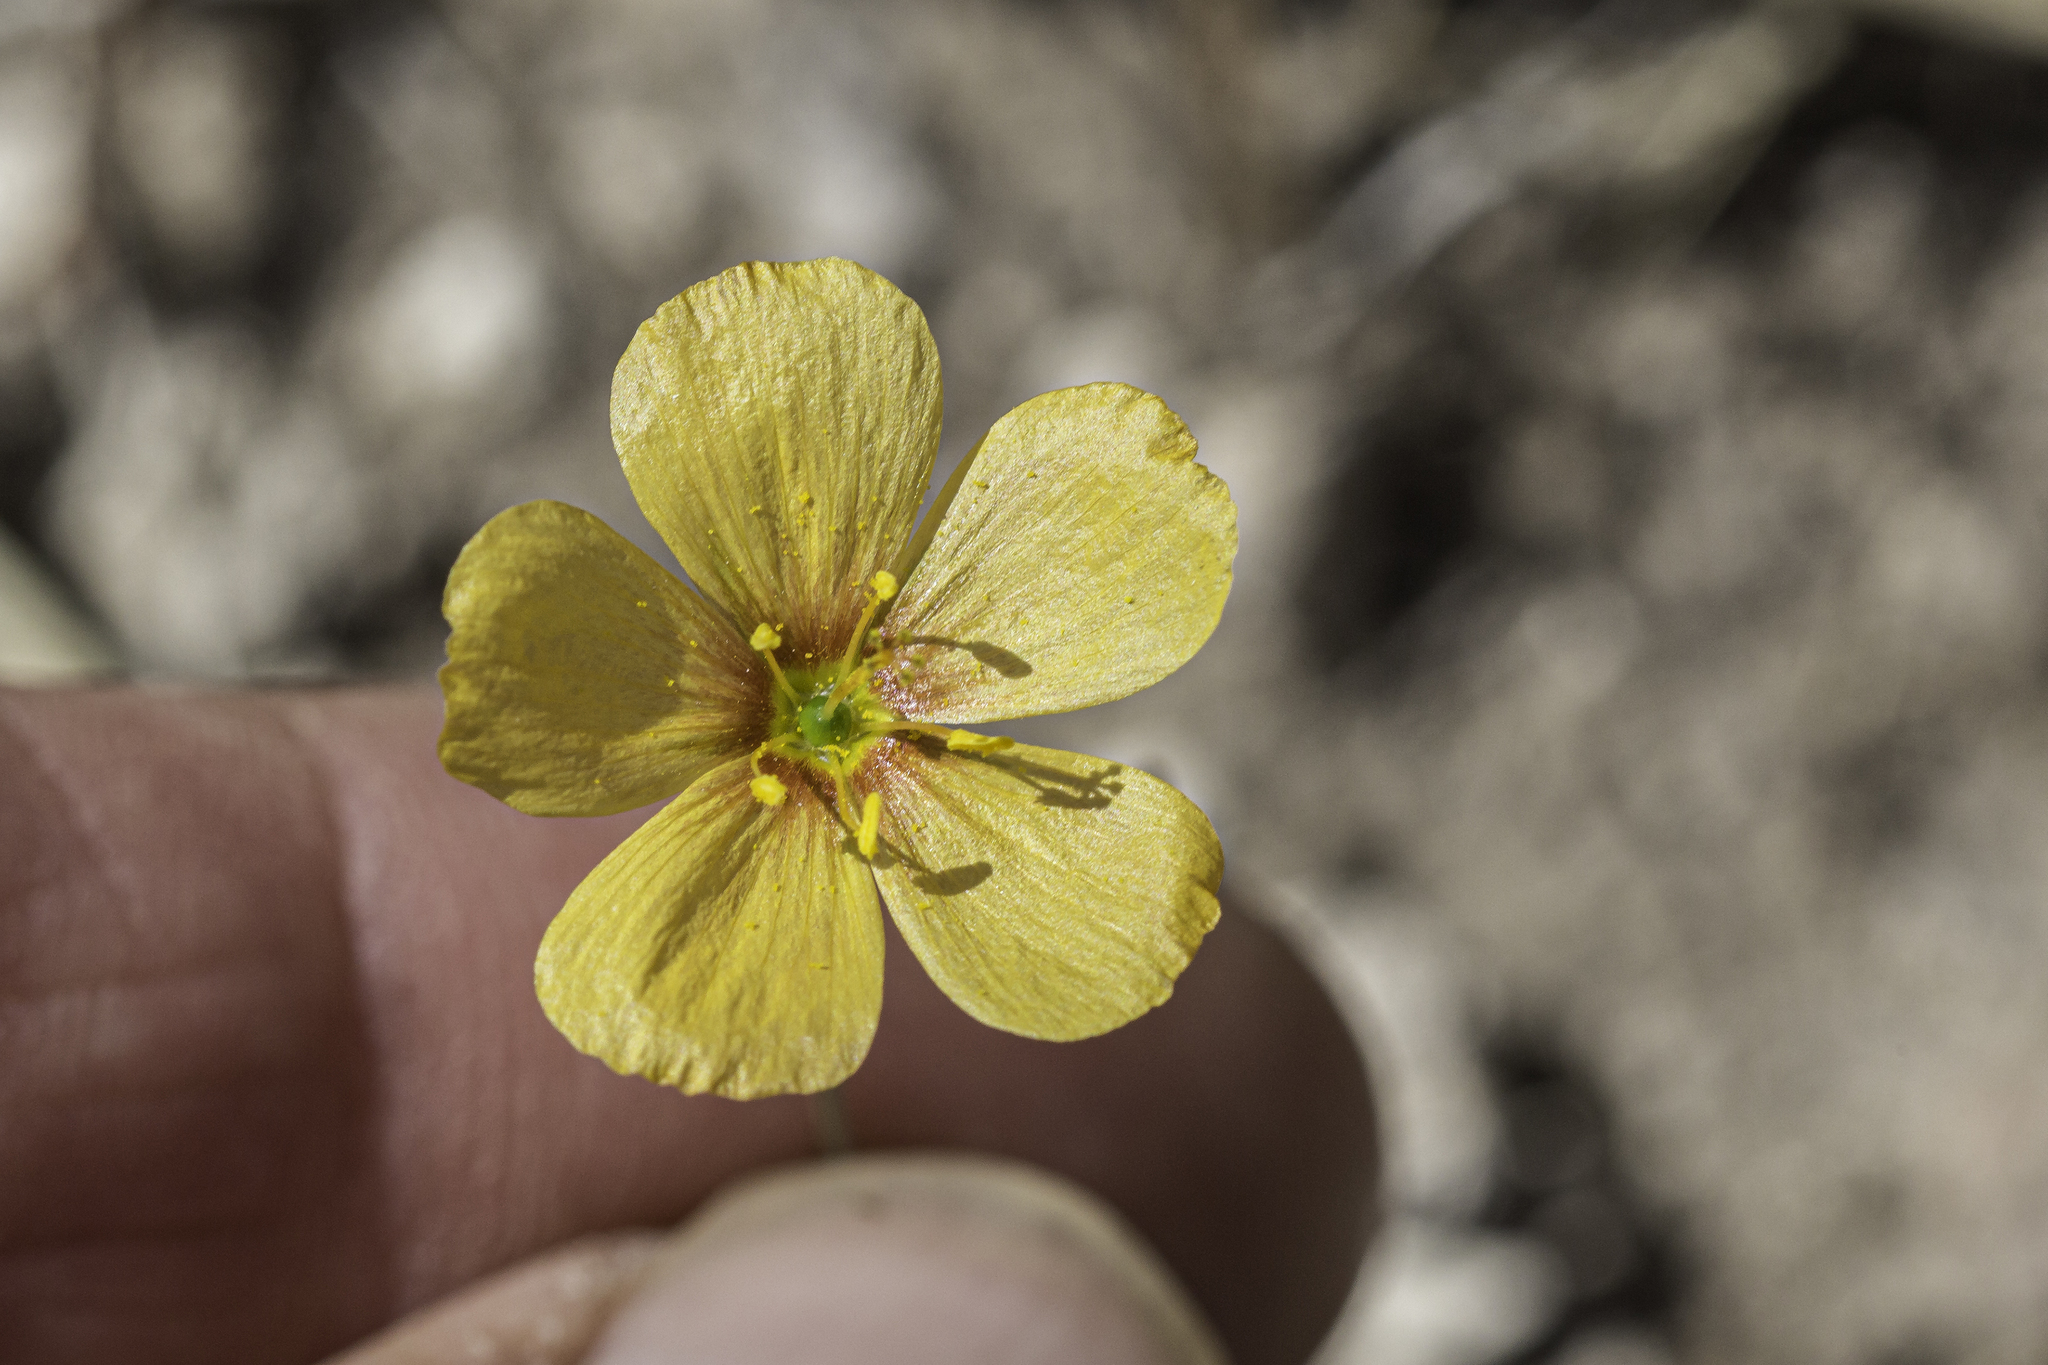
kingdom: Plantae
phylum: Tracheophyta
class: Magnoliopsida
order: Malpighiales
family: Linaceae
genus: Linum
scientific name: Linum berlandieri
